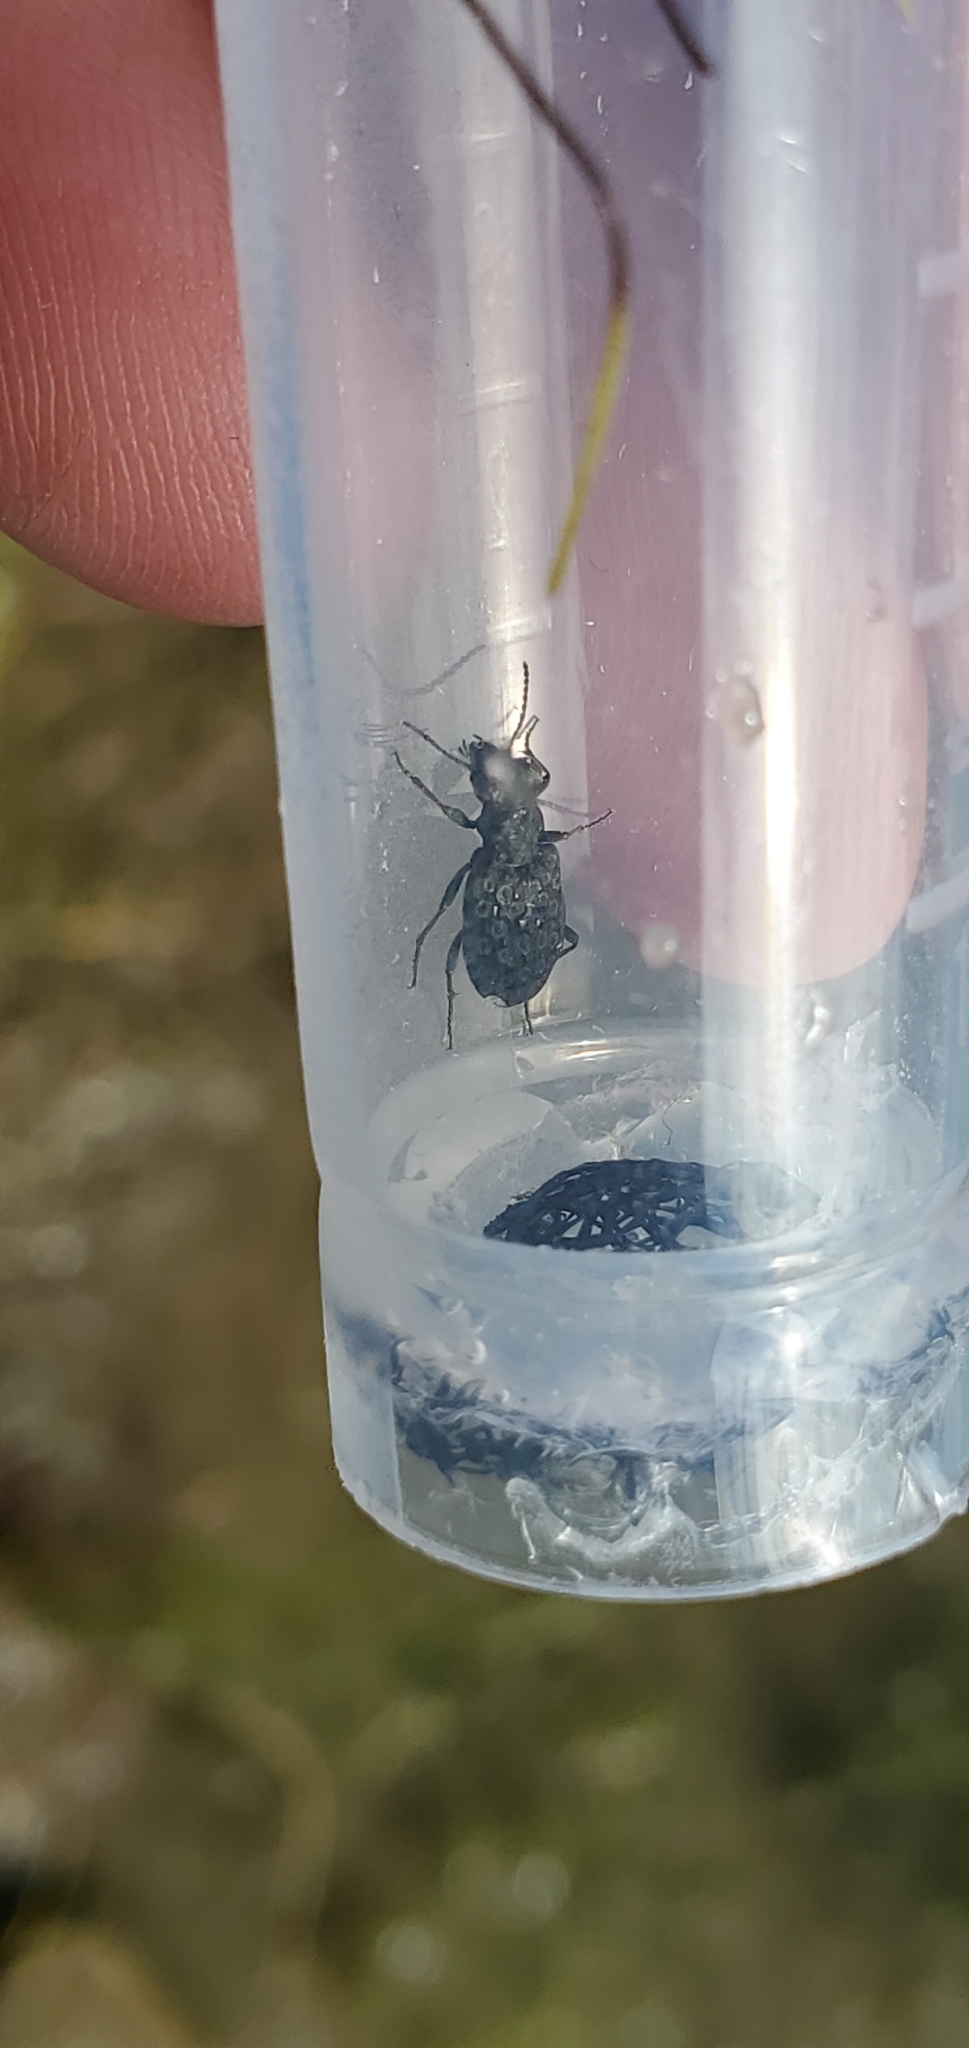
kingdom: Animalia
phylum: Arthropoda
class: Insecta
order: Coleoptera
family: Carabidae
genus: Elaphrus
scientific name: Elaphrus
